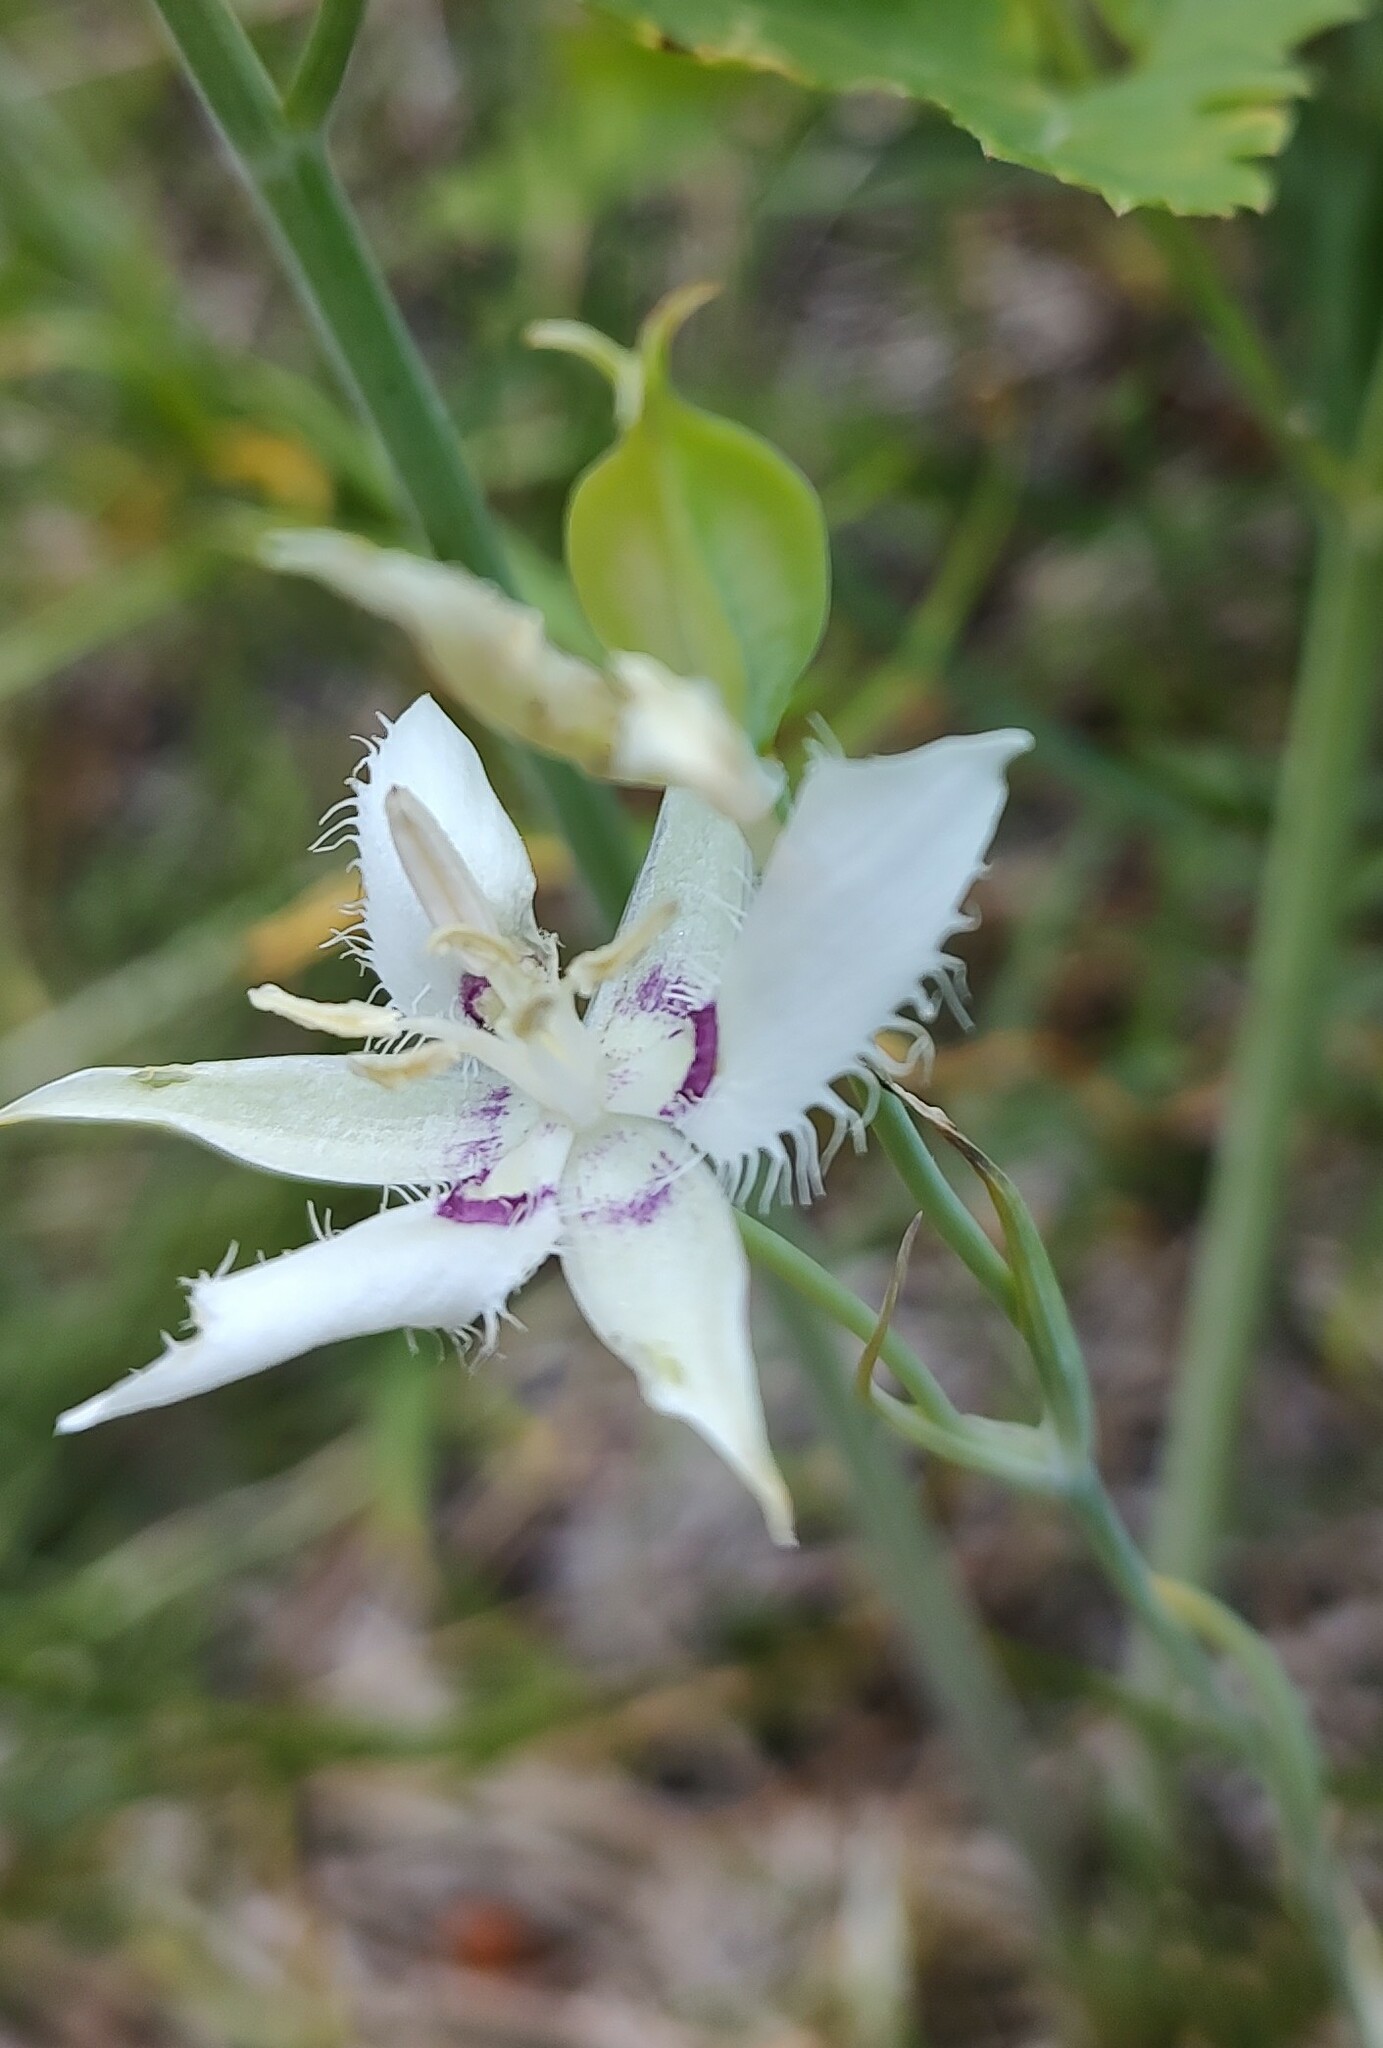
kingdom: Plantae
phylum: Tracheophyta
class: Liliopsida
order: Liliales
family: Liliaceae
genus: Calochortus
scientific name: Calochortus lyallii
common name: Lyall's mariposa lily
